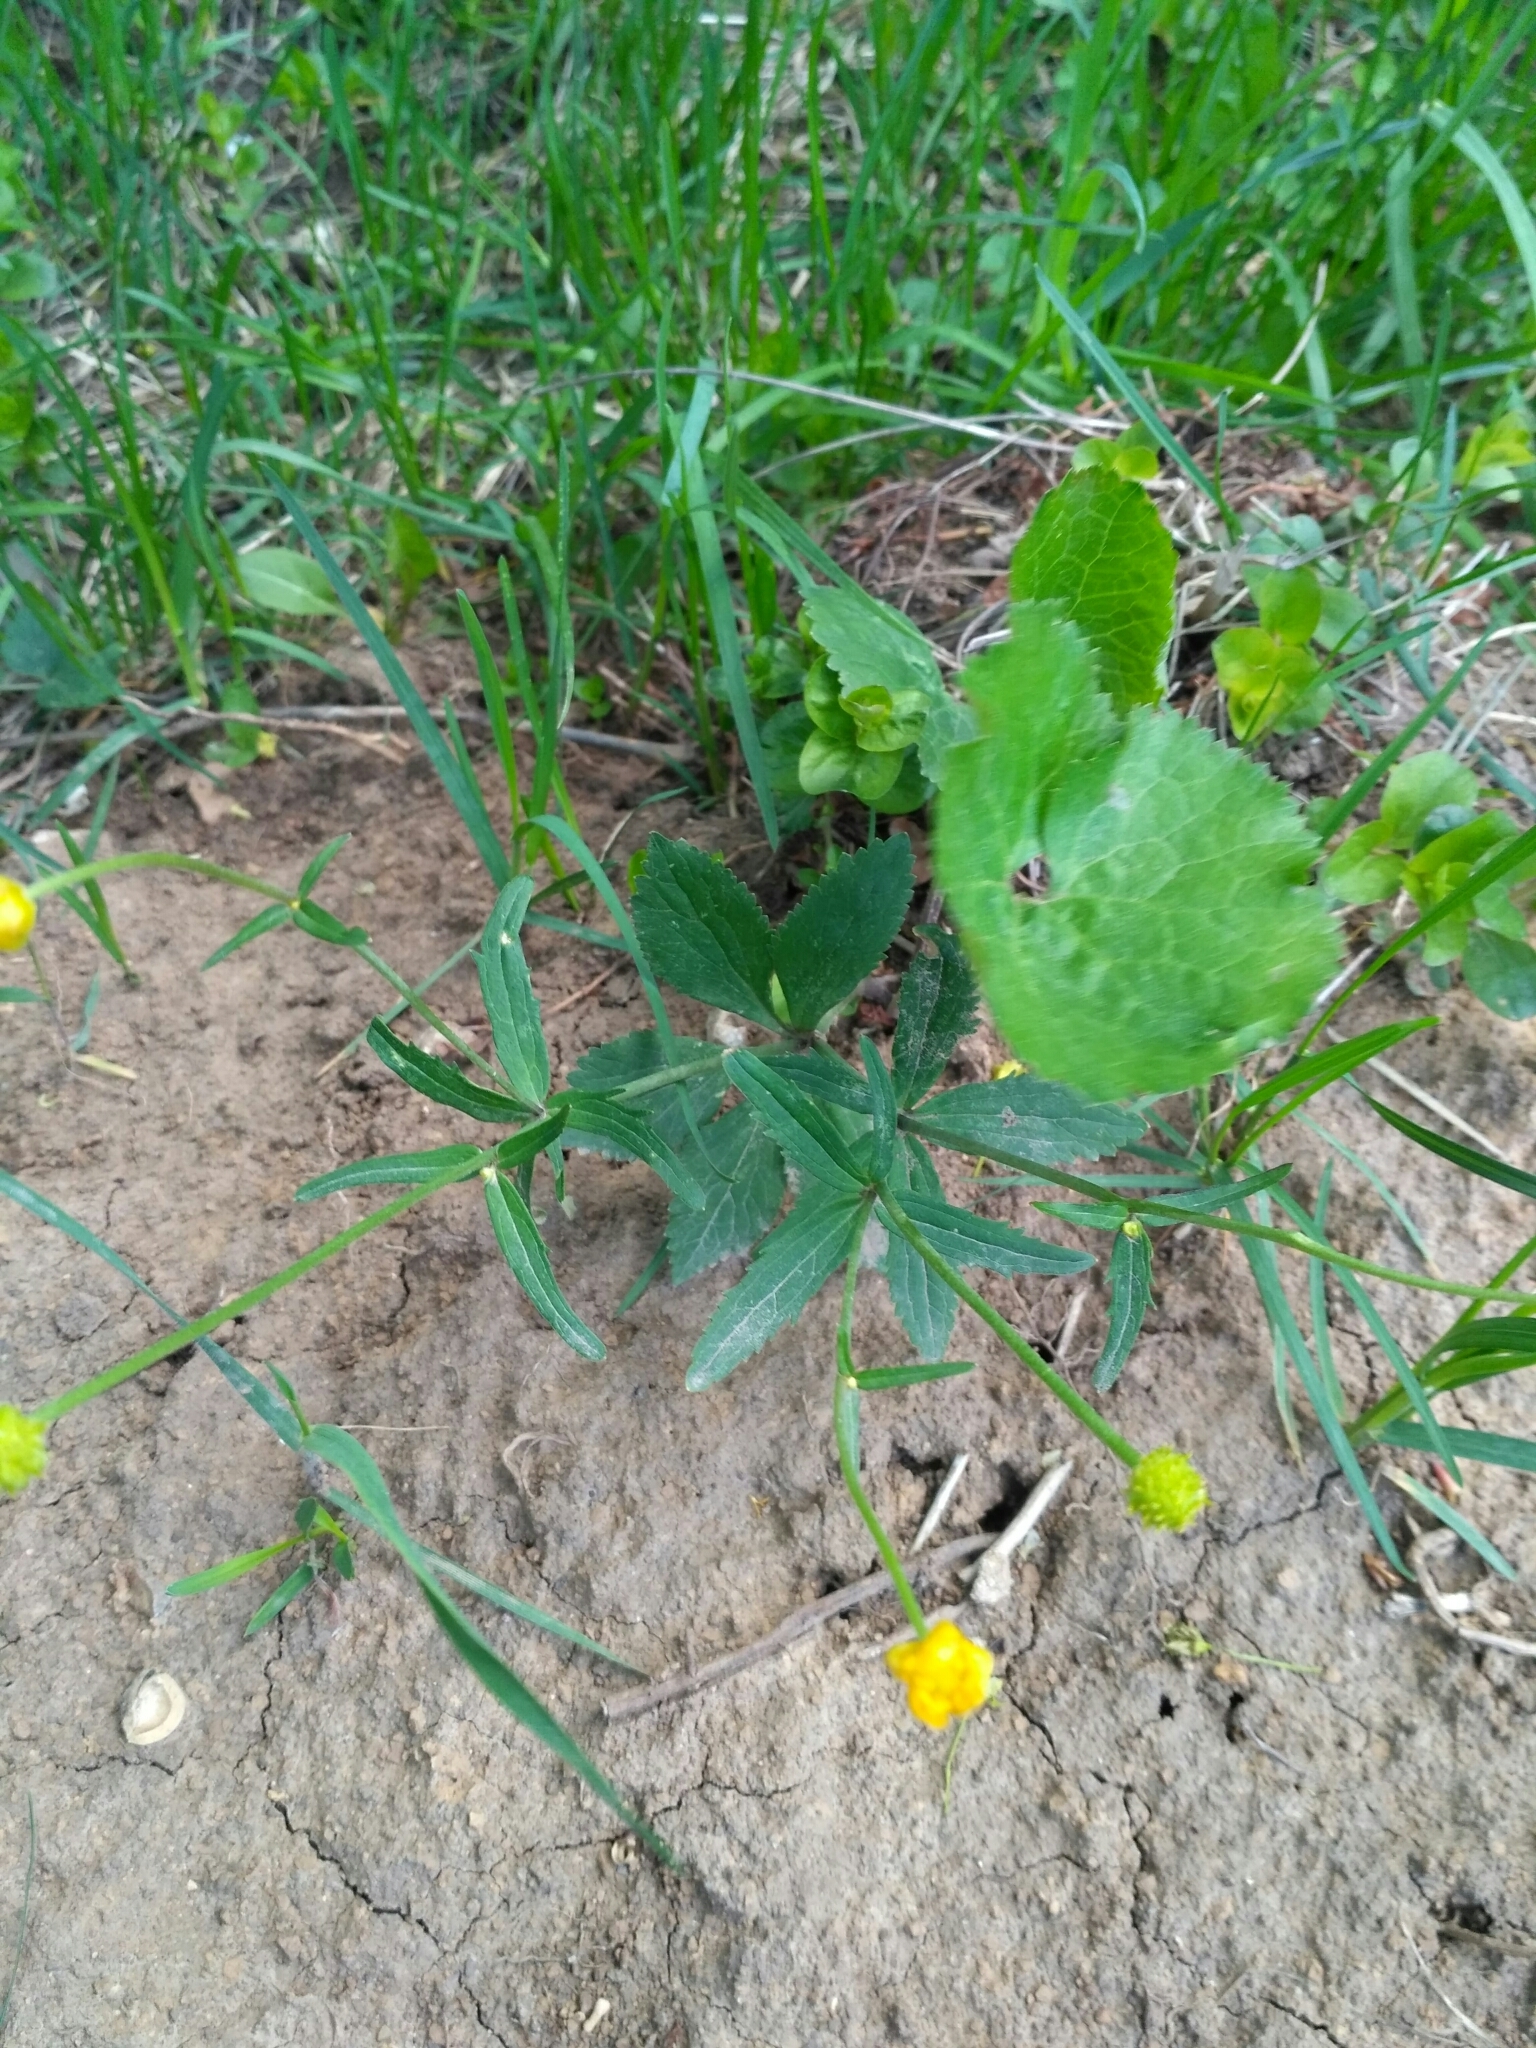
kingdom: Plantae
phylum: Tracheophyta
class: Magnoliopsida
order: Ranunculales
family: Ranunculaceae
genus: Ranunculus
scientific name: Ranunculus cassubicus
